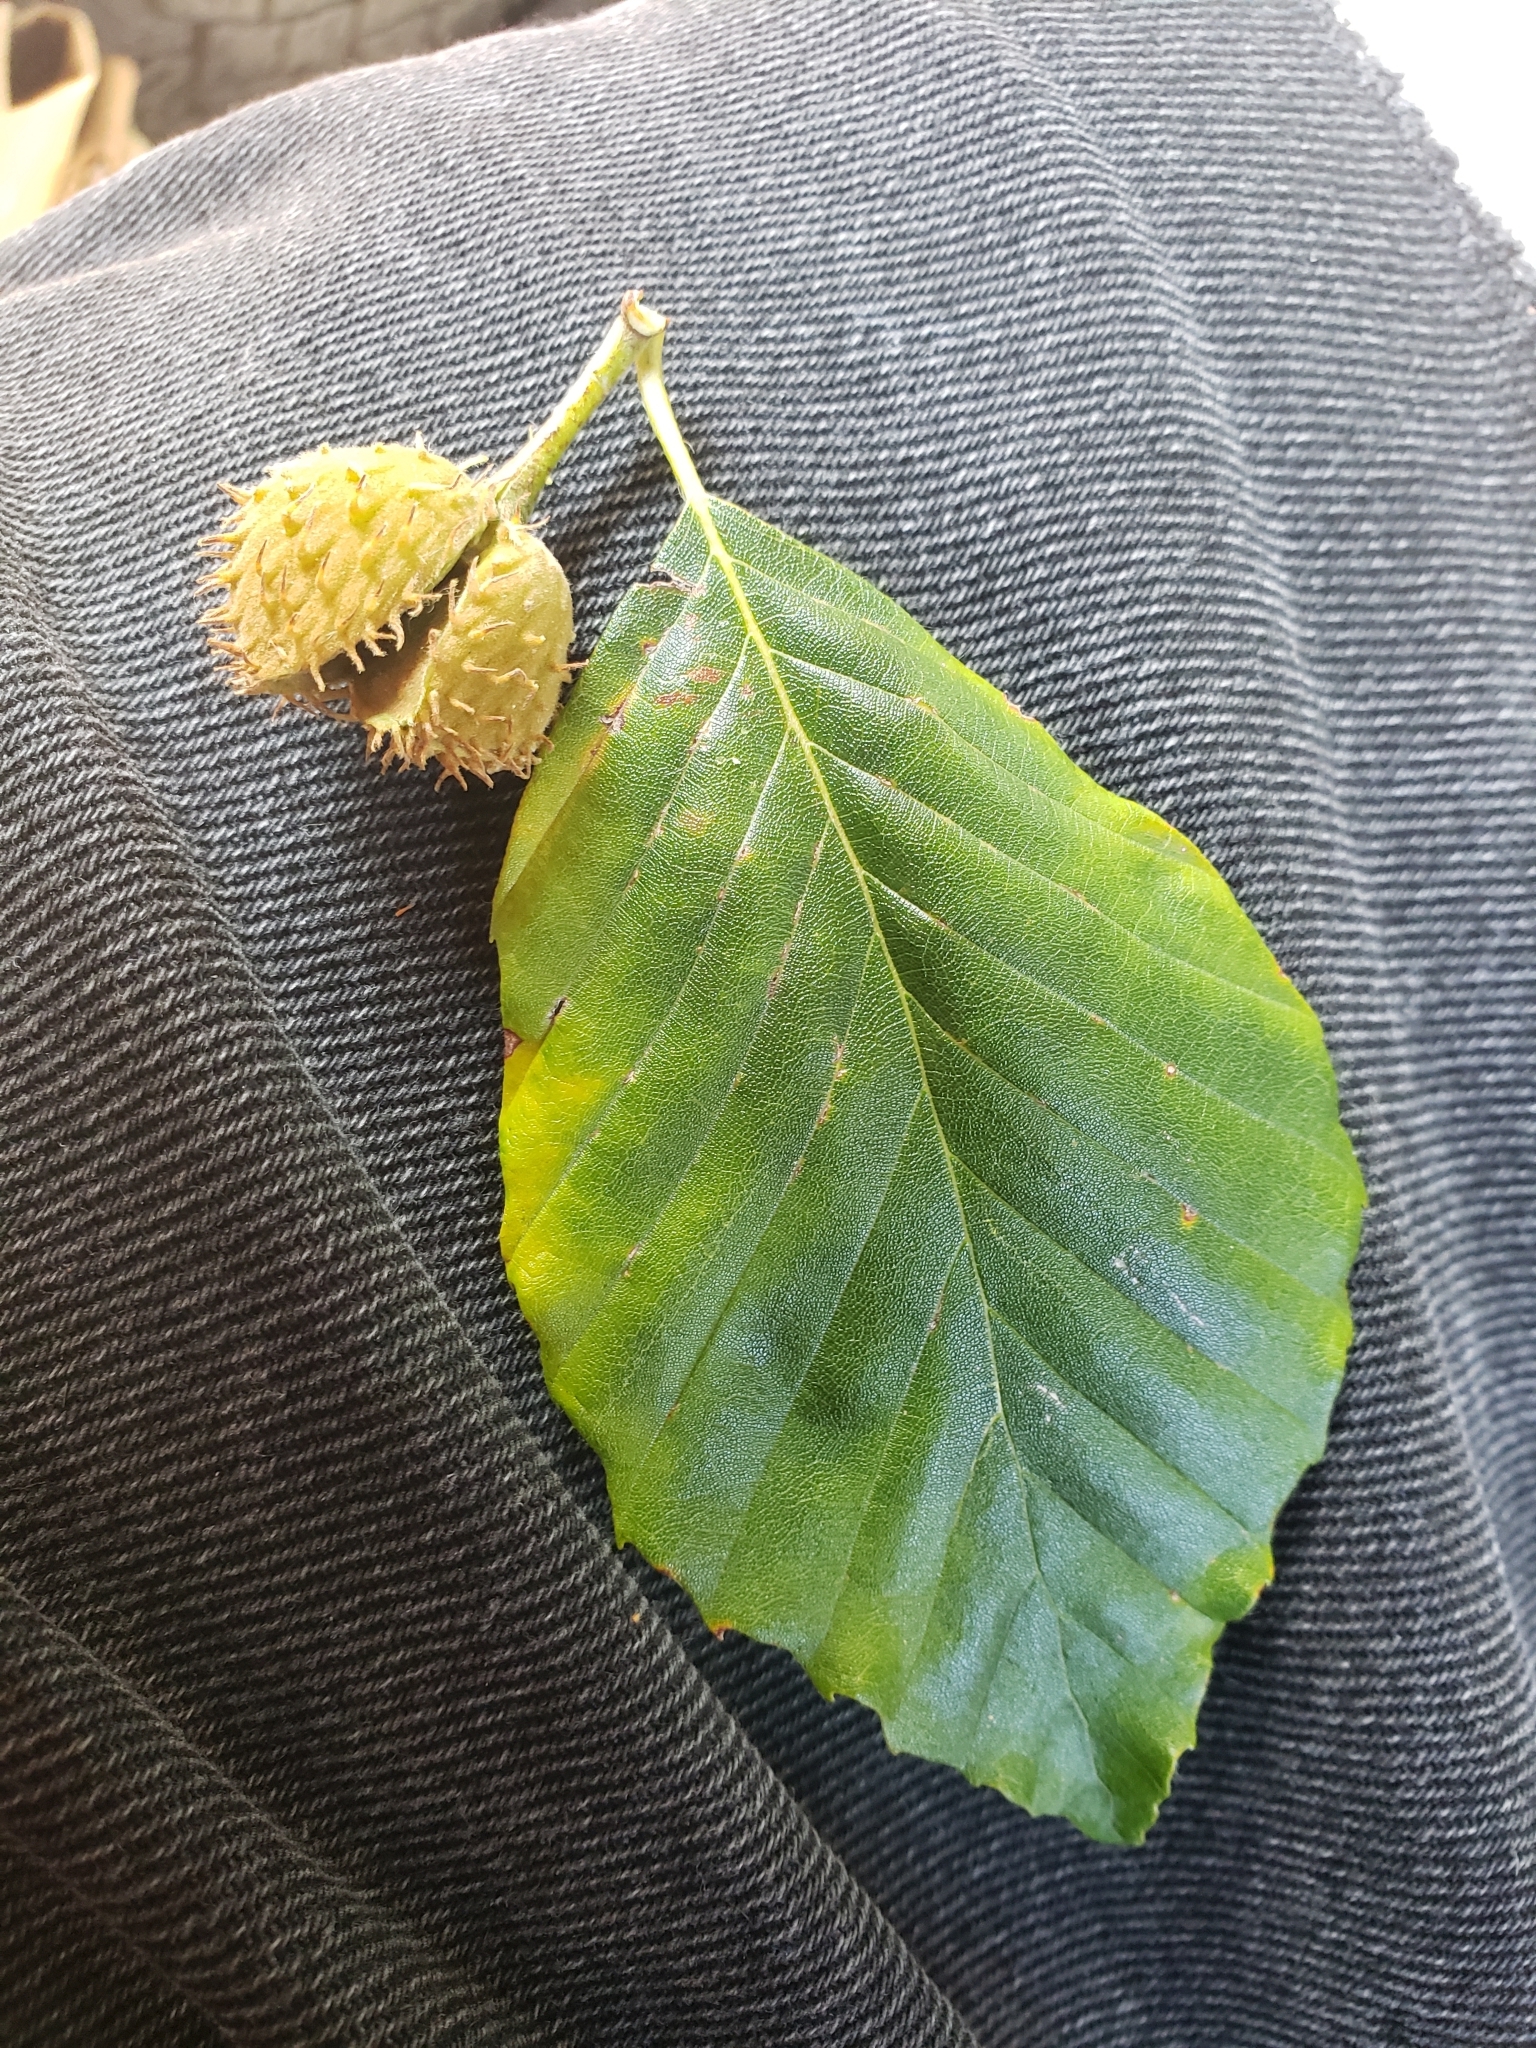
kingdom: Plantae
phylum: Tracheophyta
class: Magnoliopsida
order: Fagales
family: Fagaceae
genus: Fagus
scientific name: Fagus grandifolia
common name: American beech
